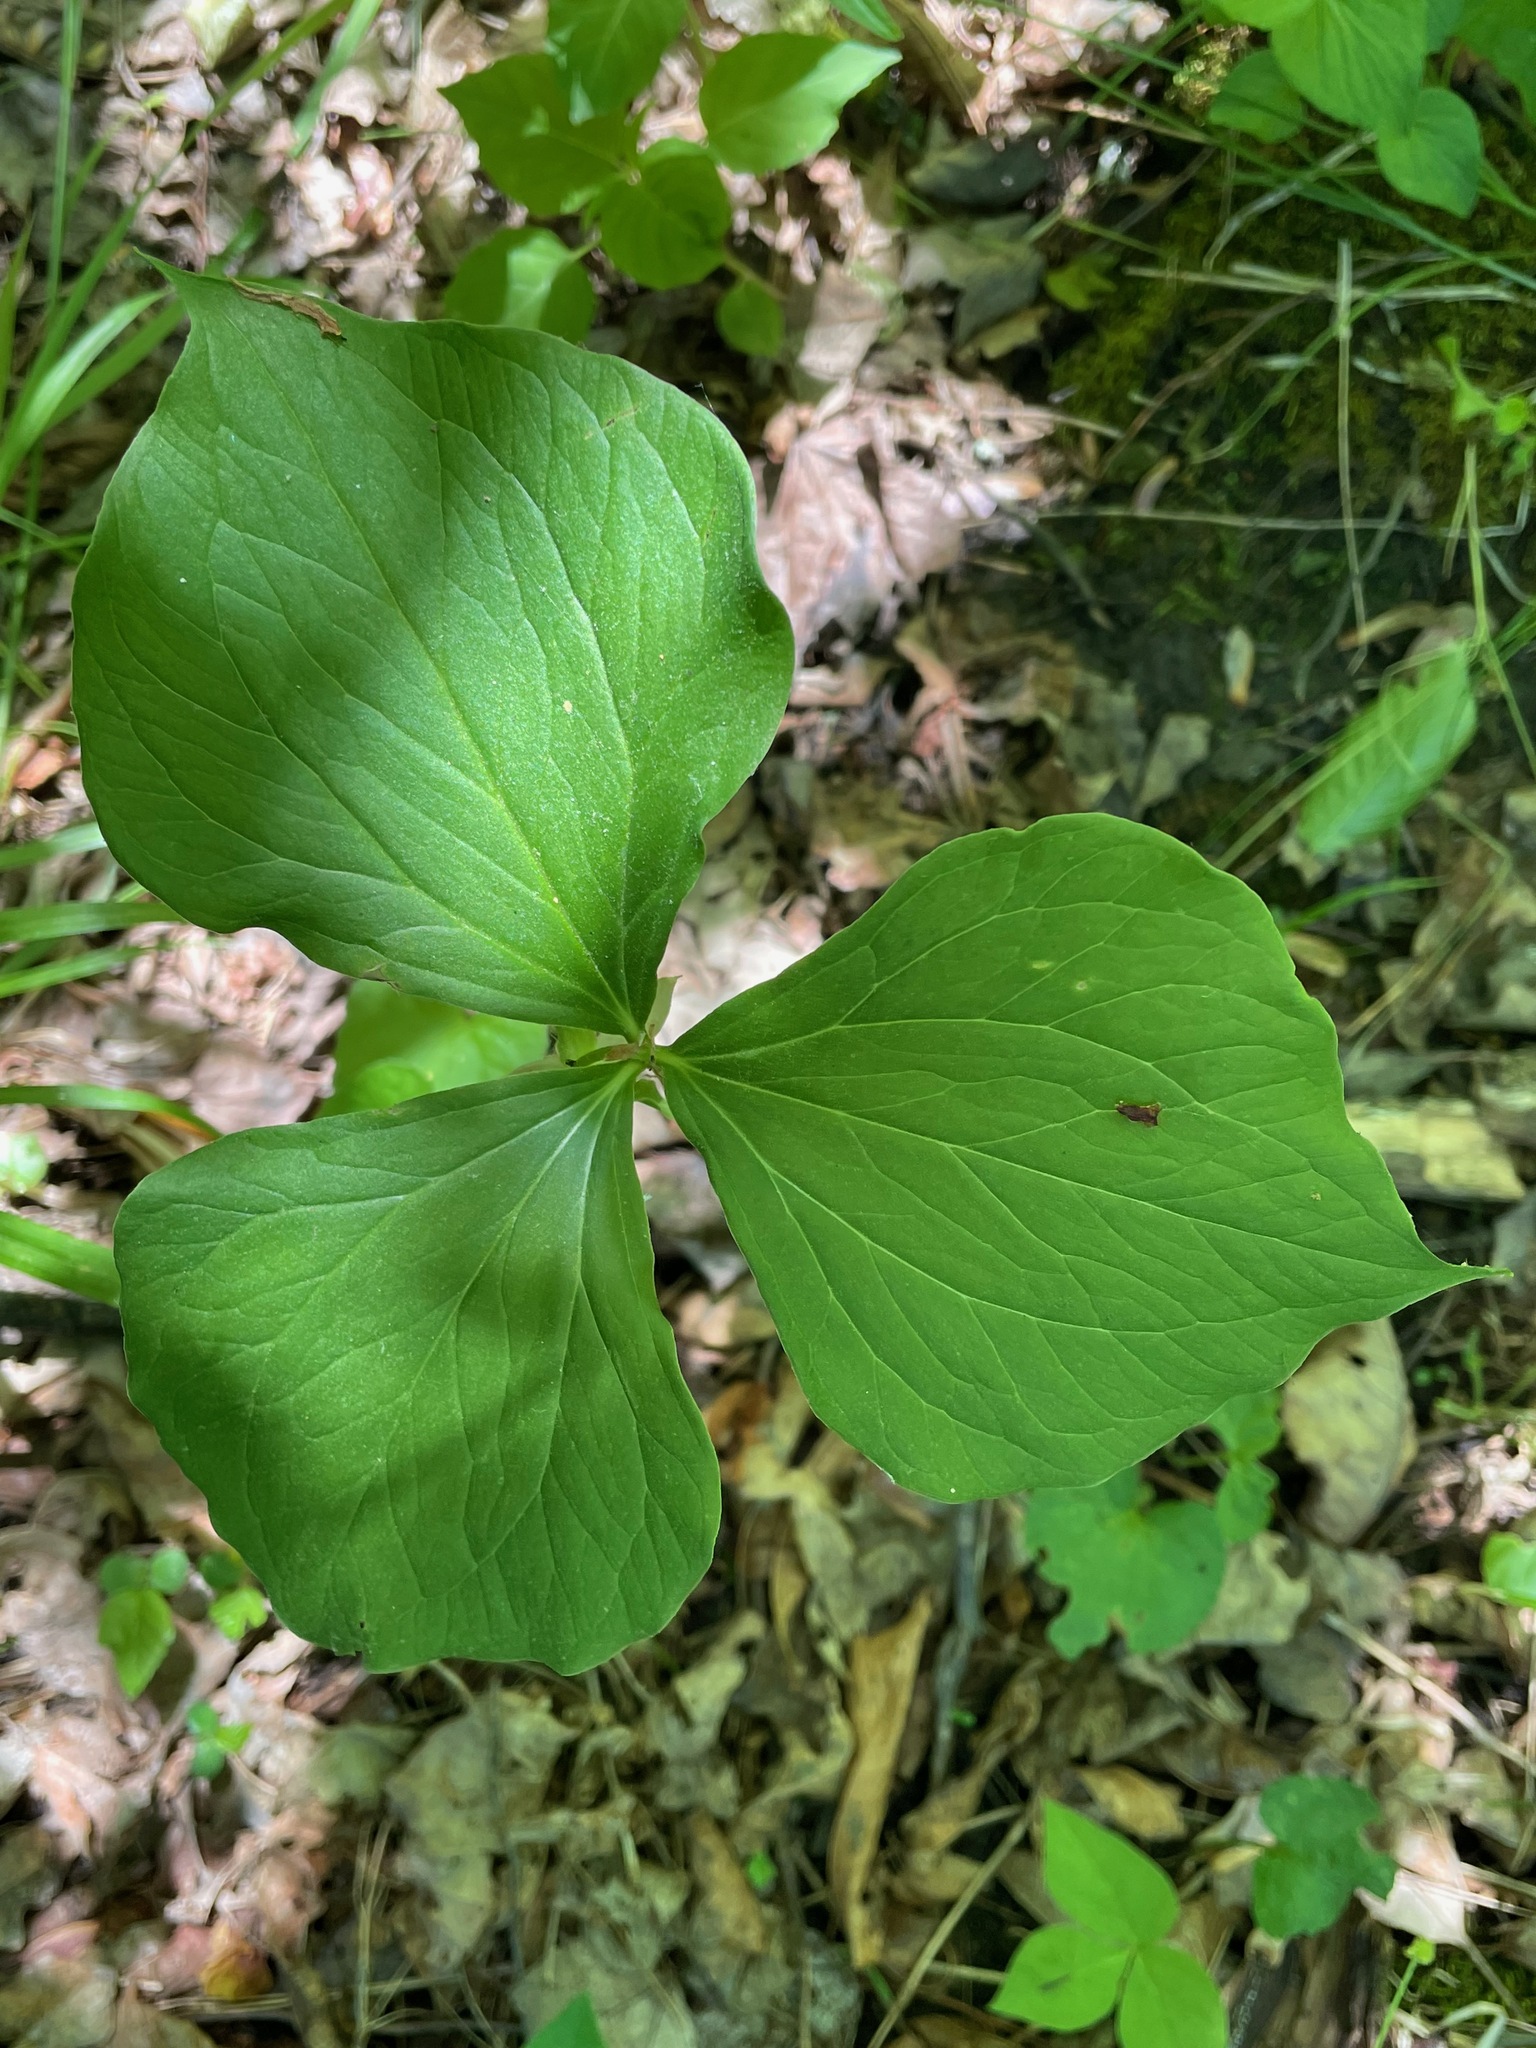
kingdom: Plantae
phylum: Tracheophyta
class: Liliopsida
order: Liliales
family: Melanthiaceae
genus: Trillium
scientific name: Trillium cernuum
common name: Nodding trillium
